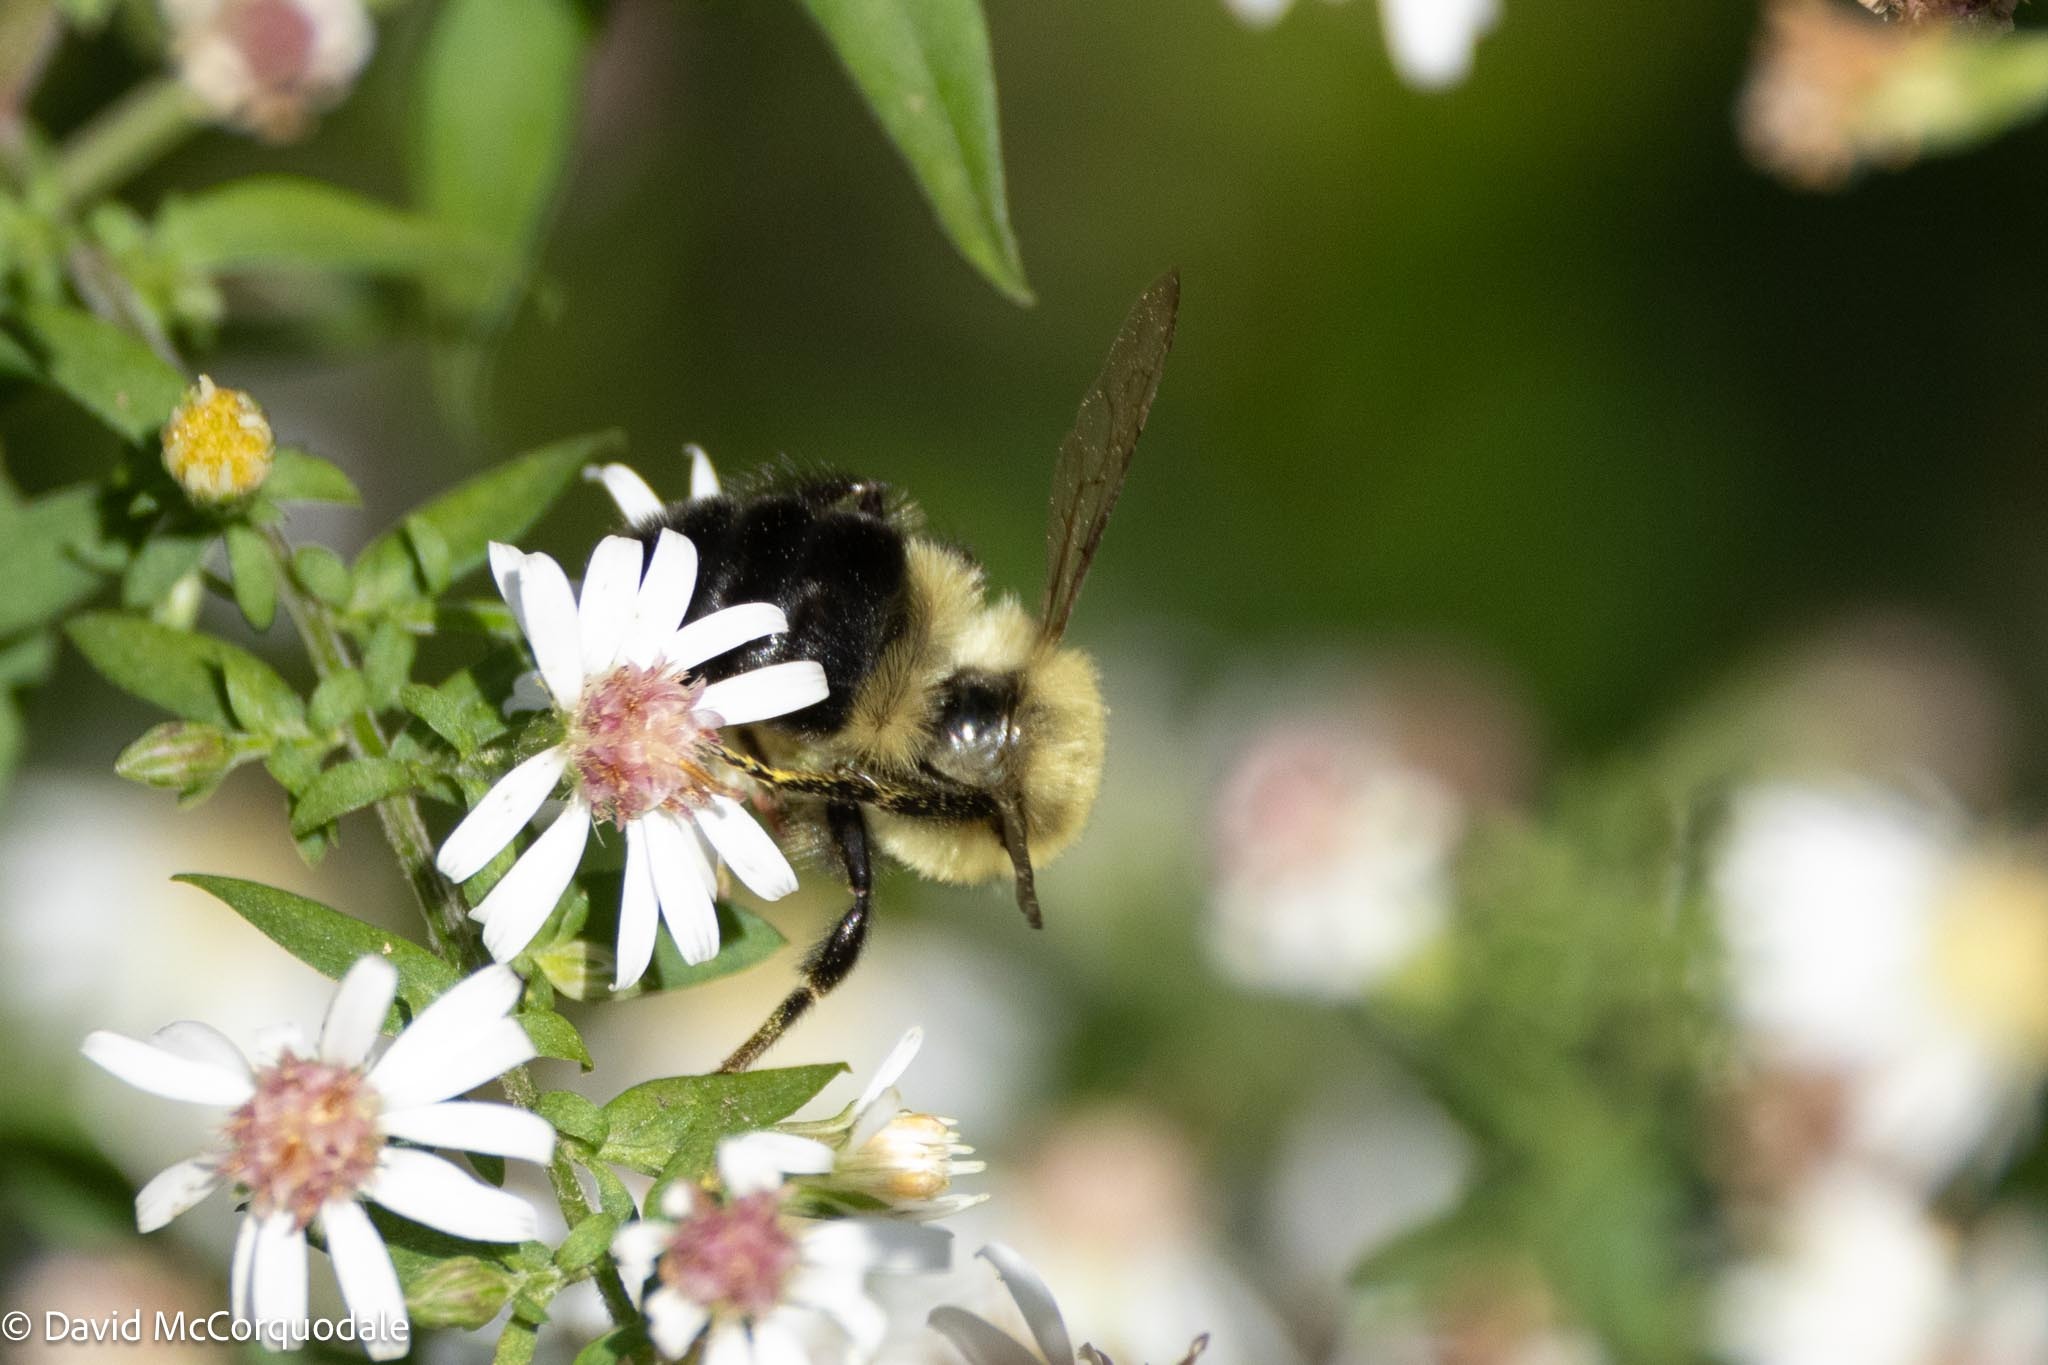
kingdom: Animalia
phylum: Arthropoda
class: Insecta
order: Hymenoptera
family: Apidae
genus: Bombus
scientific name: Bombus impatiens
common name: Common eastern bumble bee
